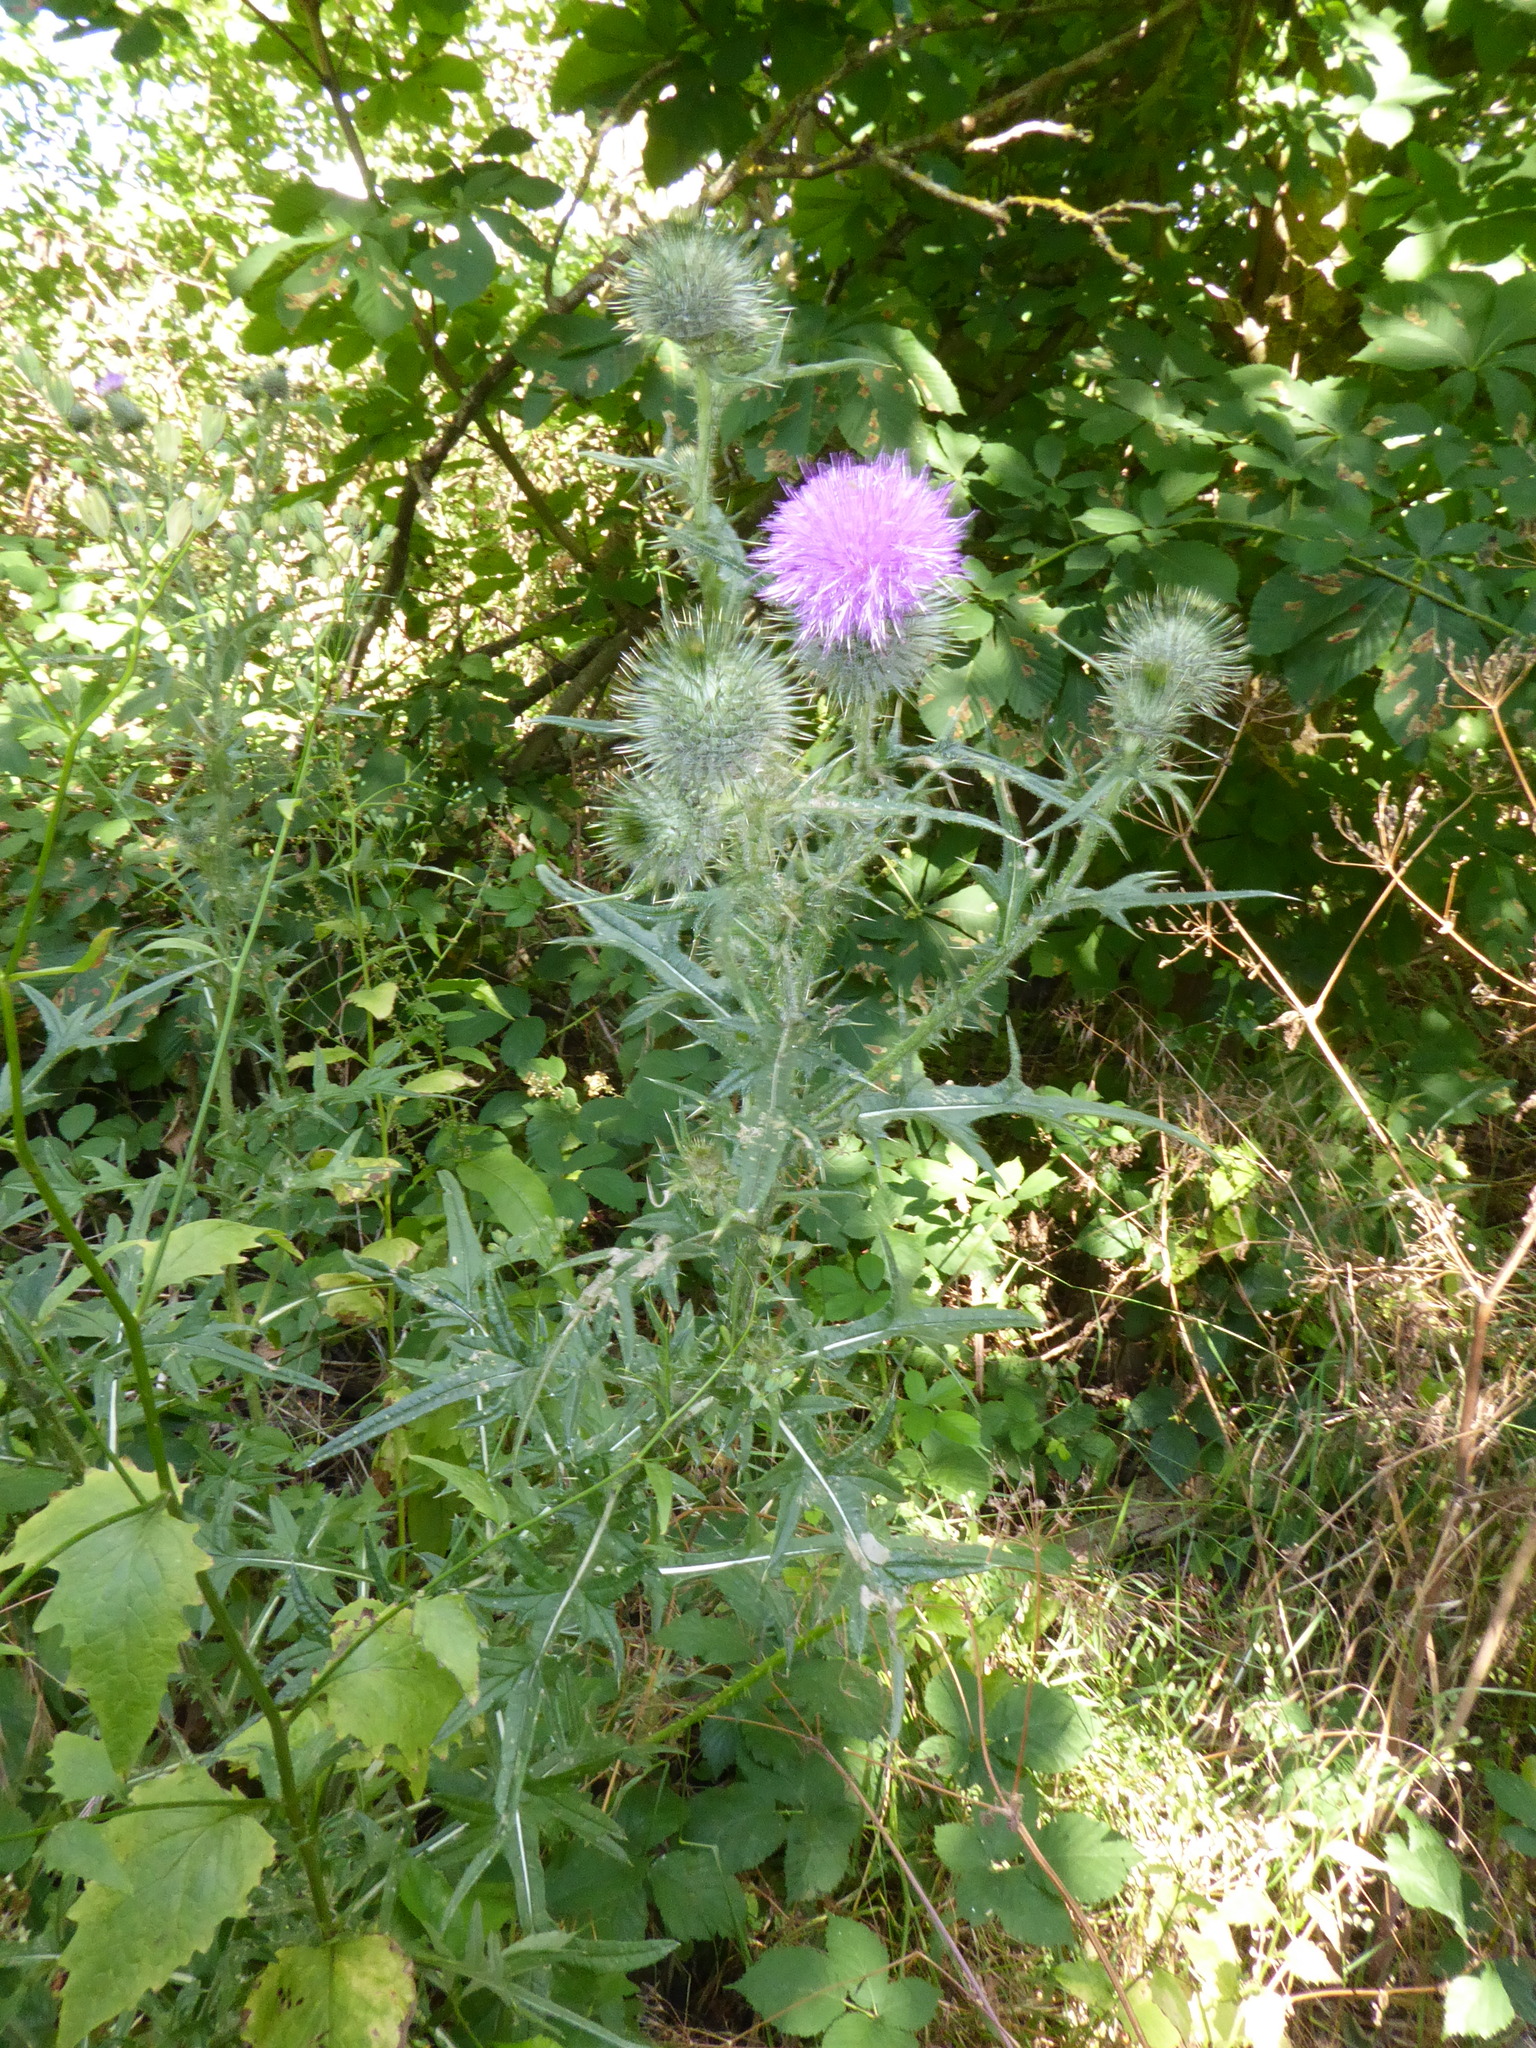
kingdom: Plantae
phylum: Tracheophyta
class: Magnoliopsida
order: Asterales
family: Asteraceae
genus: Cirsium
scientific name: Cirsium vulgare
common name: Bull thistle
